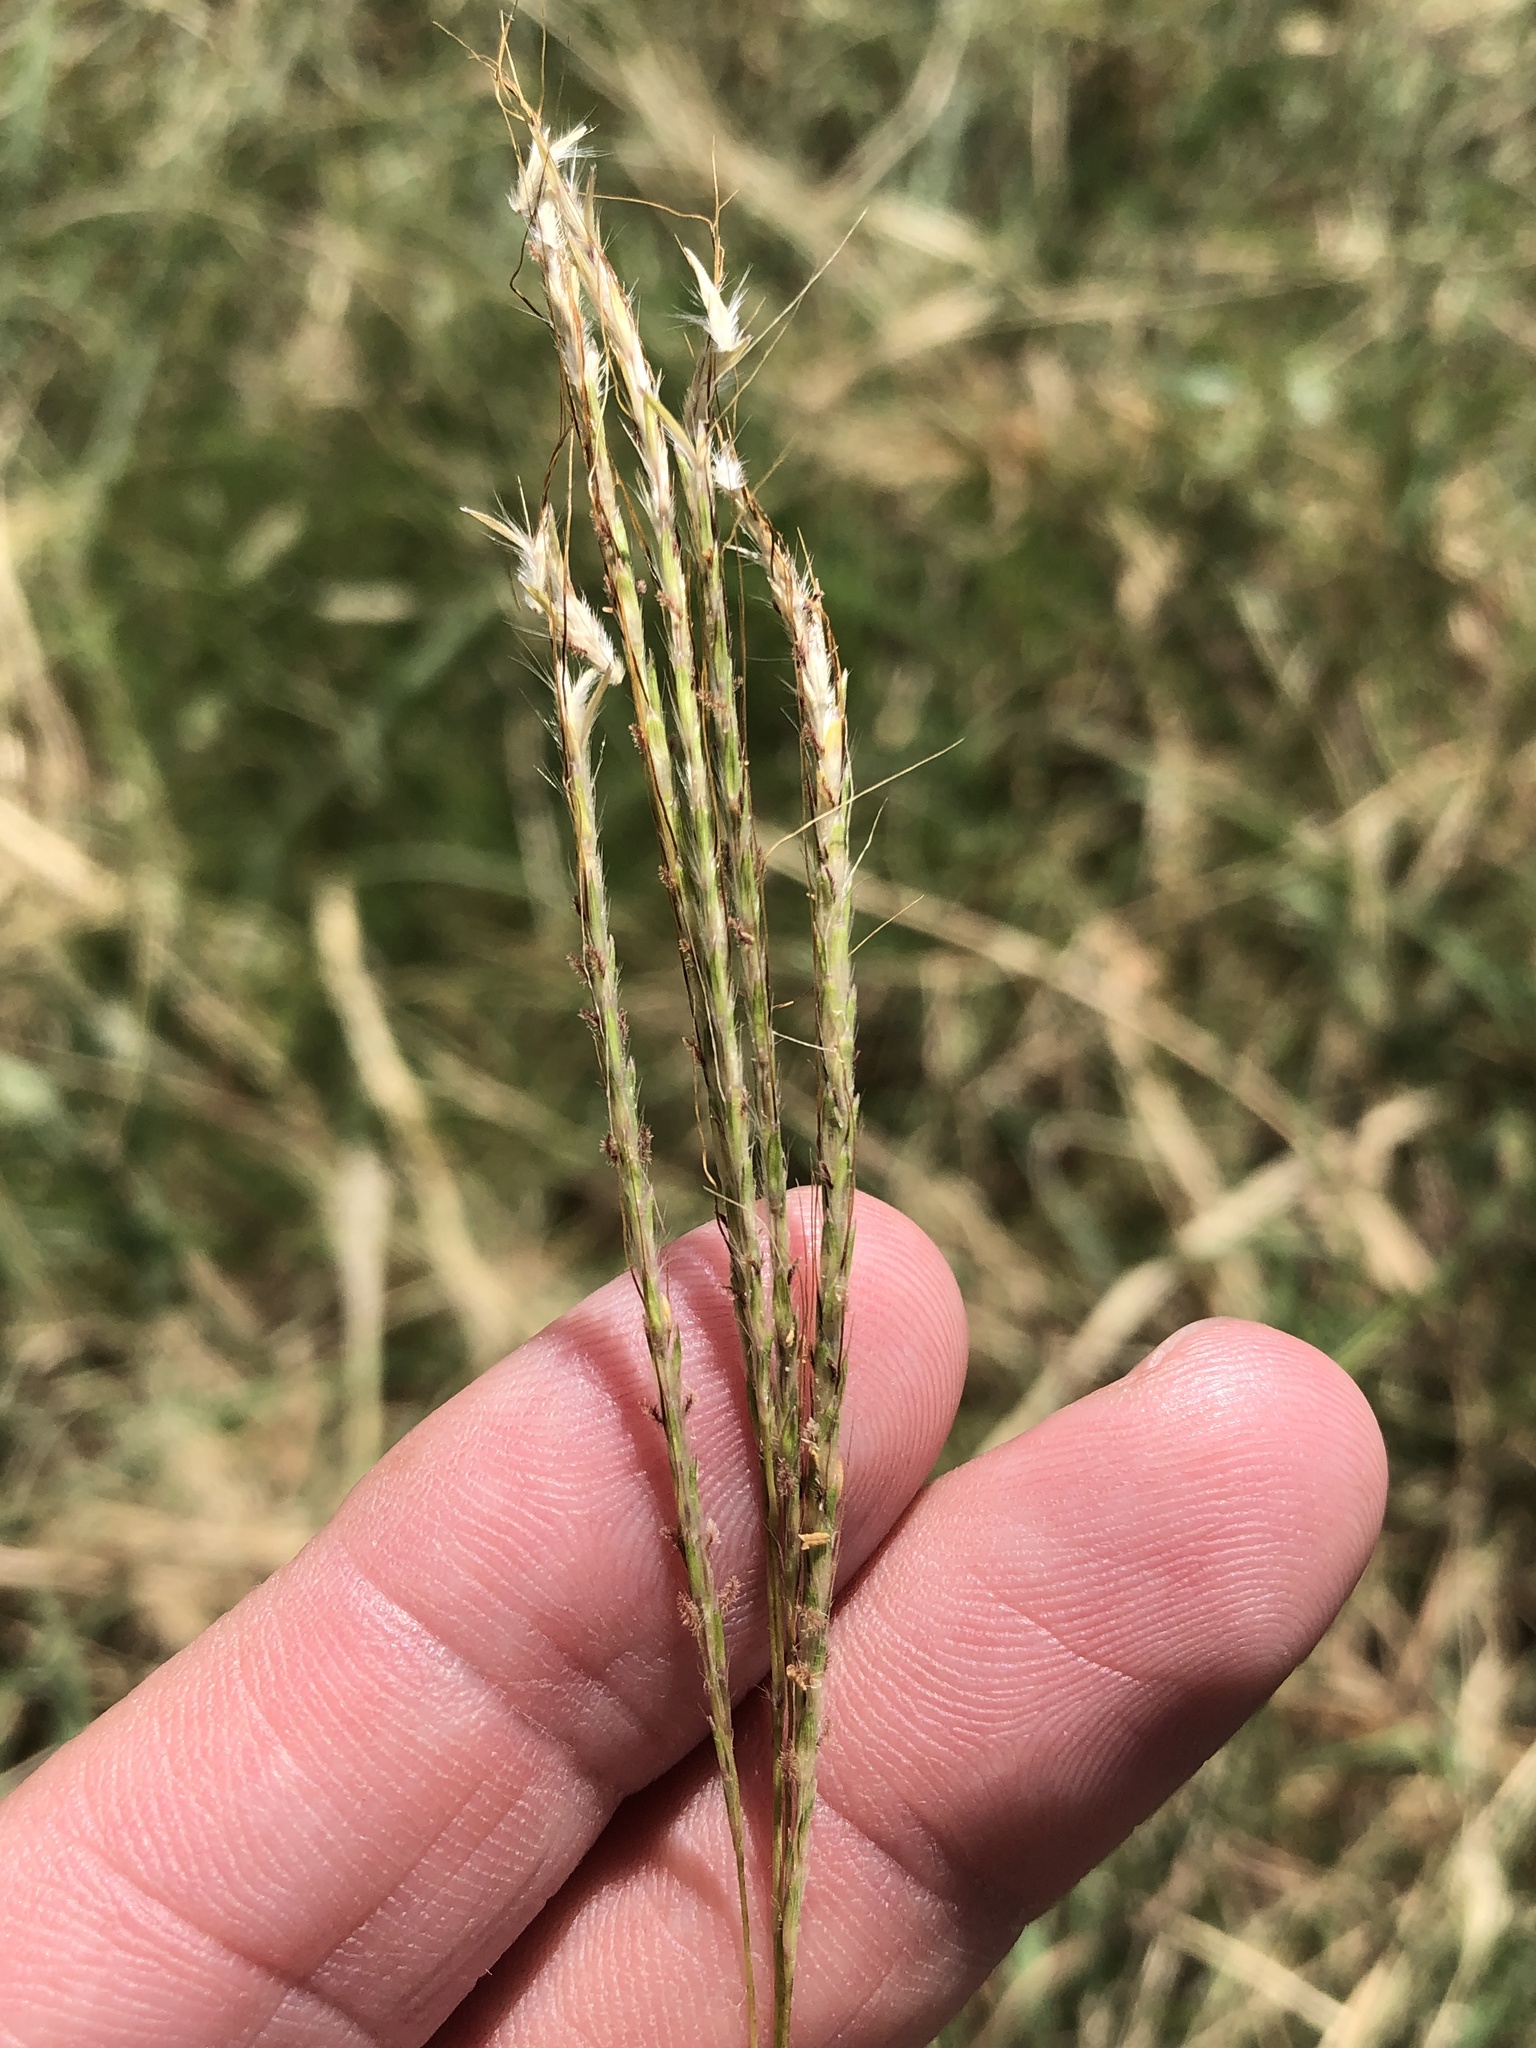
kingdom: Plantae
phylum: Tracheophyta
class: Liliopsida
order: Poales
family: Poaceae
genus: Bothriochloa
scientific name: Bothriochloa ischaemum
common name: Yellow bluestem
